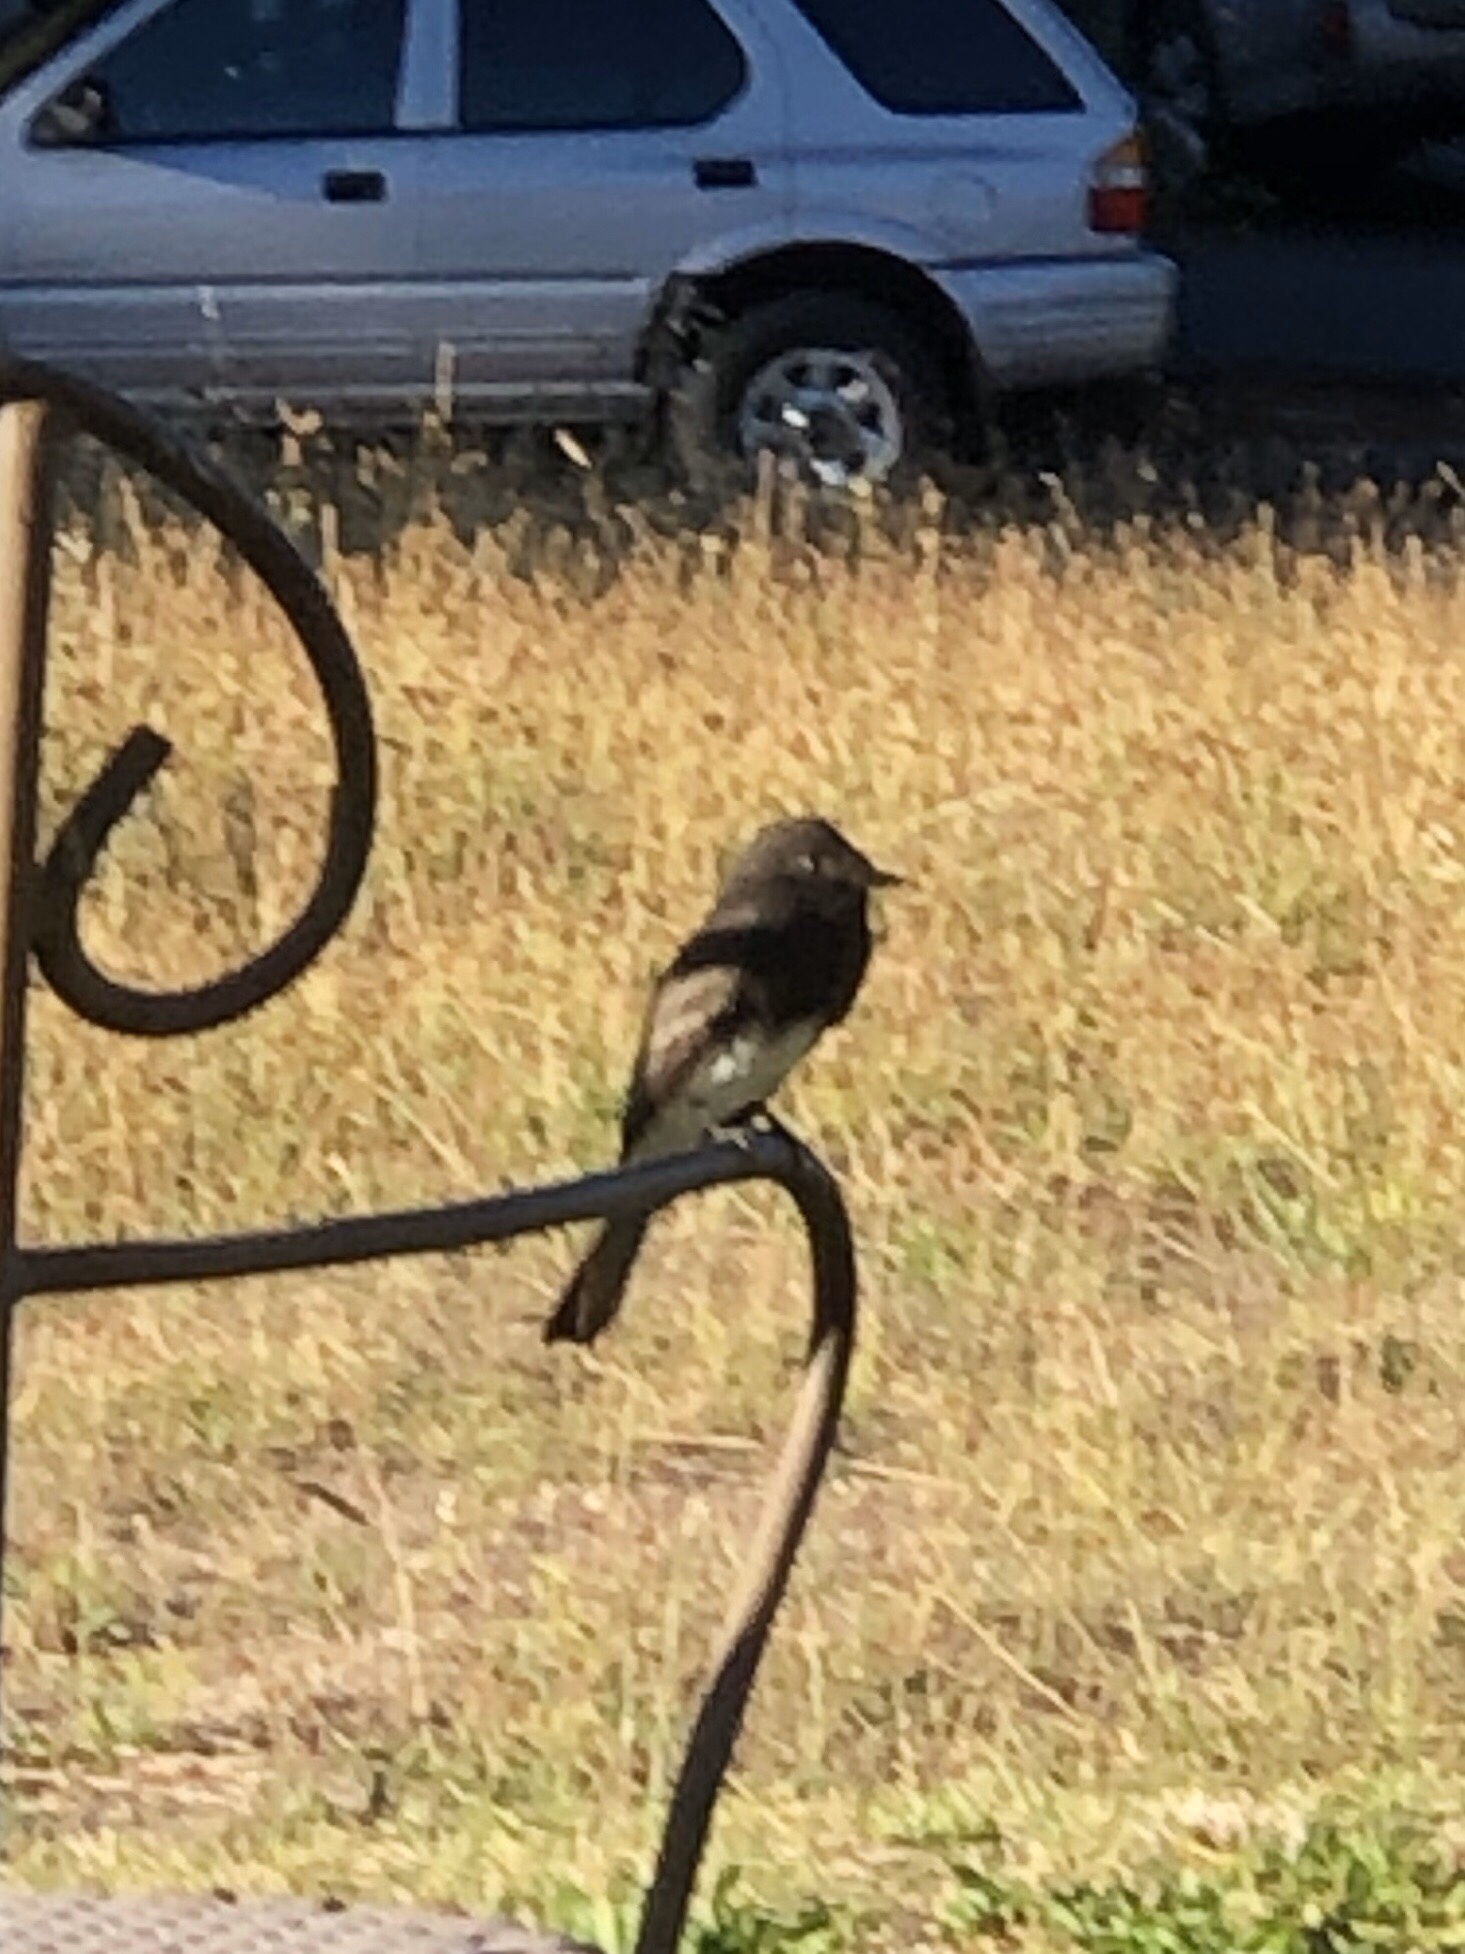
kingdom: Animalia
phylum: Chordata
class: Aves
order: Passeriformes
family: Tyrannidae
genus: Sayornis
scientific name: Sayornis nigricans
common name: Black phoebe
